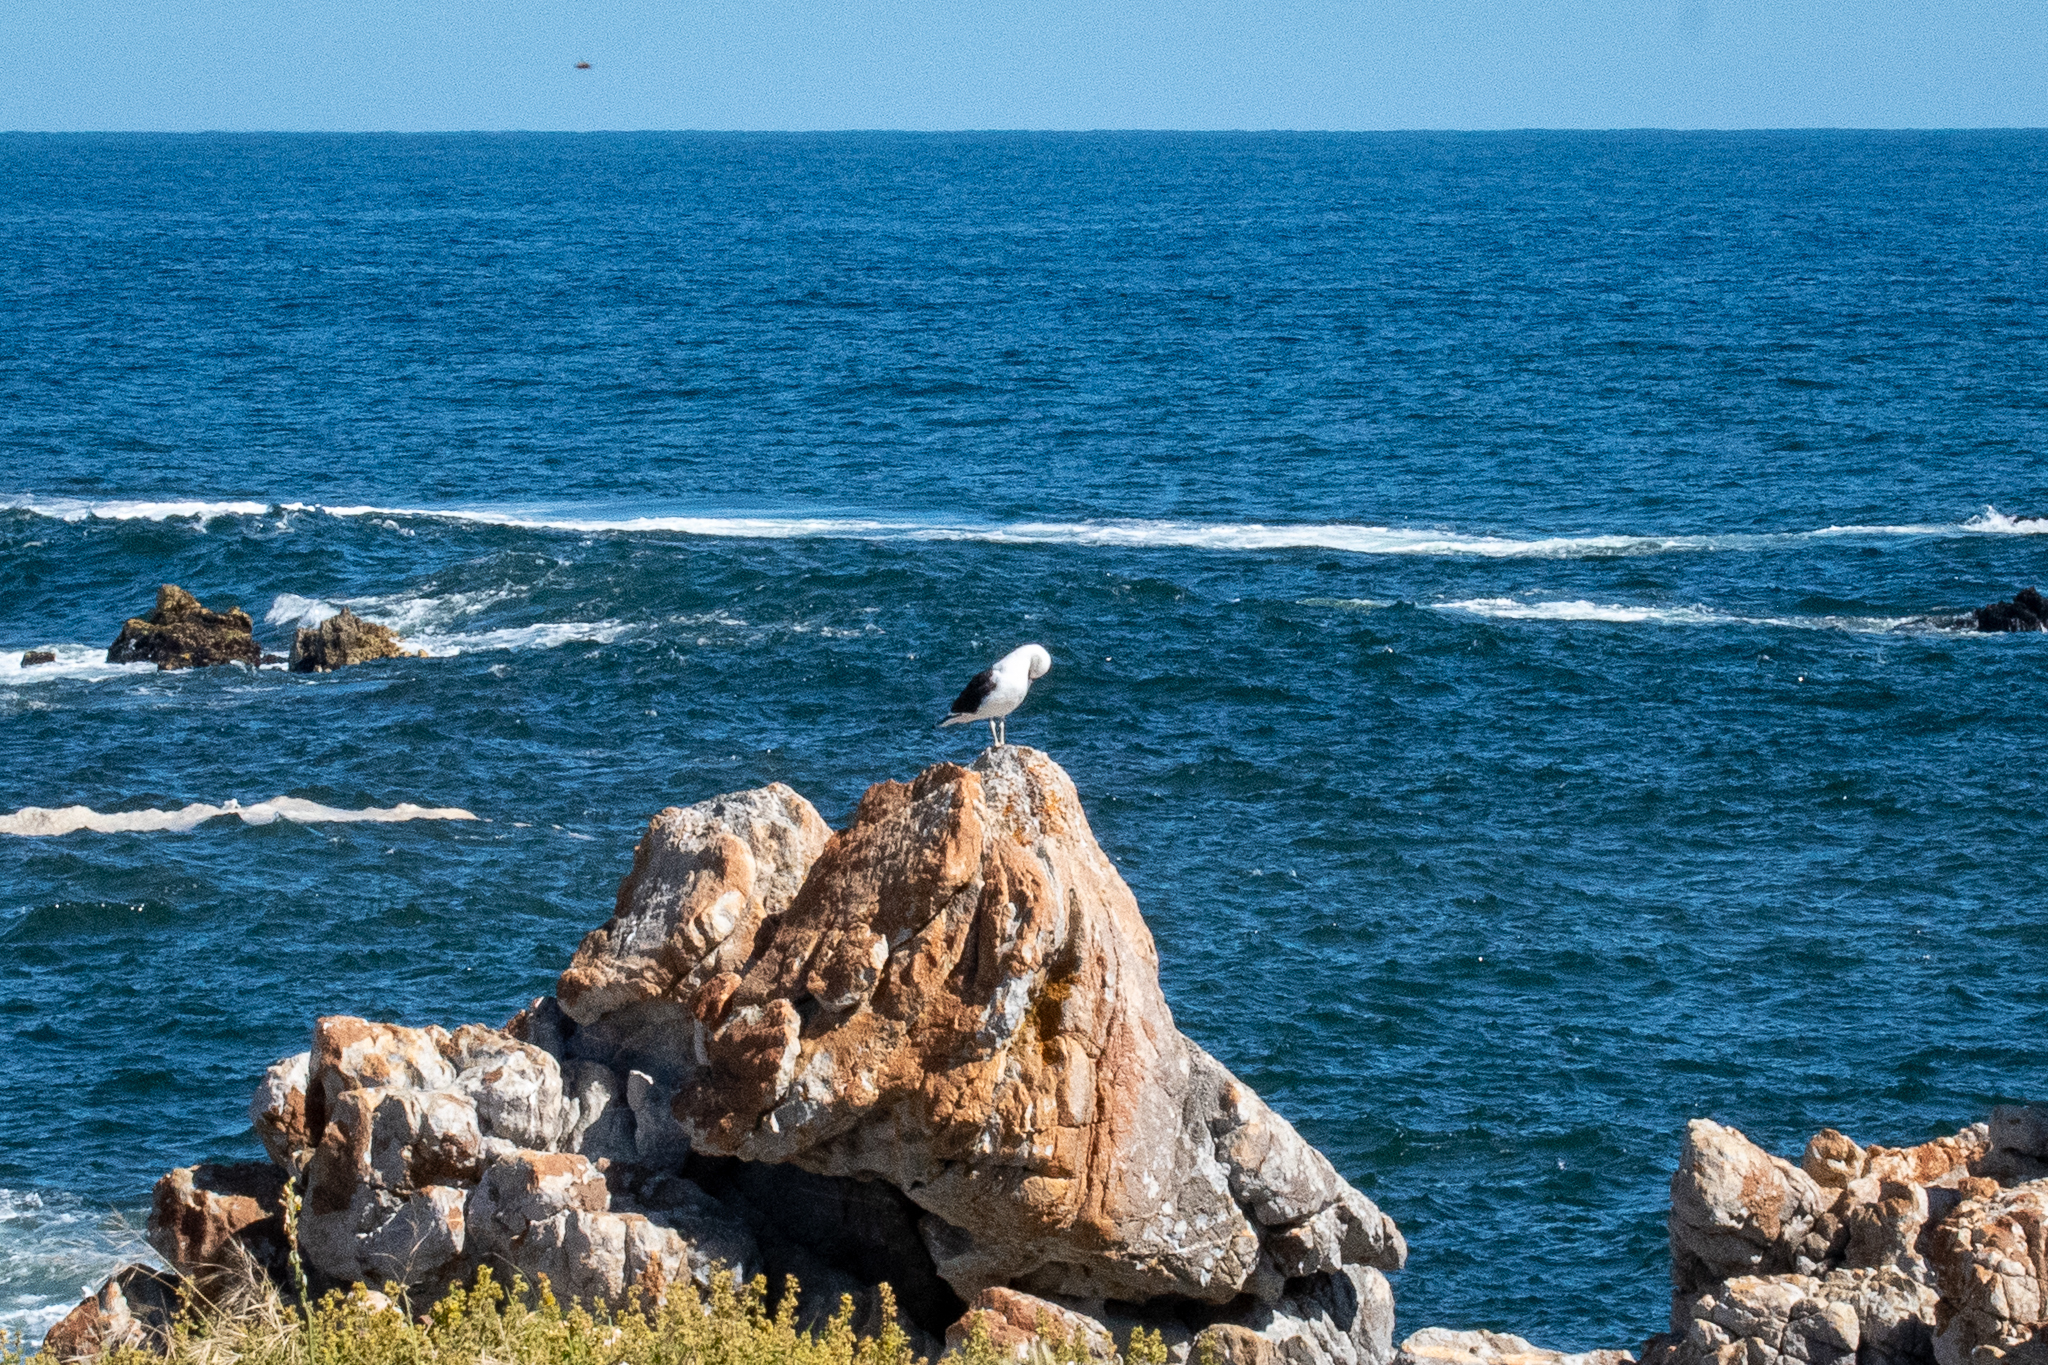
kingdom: Animalia
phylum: Chordata
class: Aves
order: Charadriiformes
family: Laridae
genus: Larus
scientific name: Larus dominicanus
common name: Kelp gull
